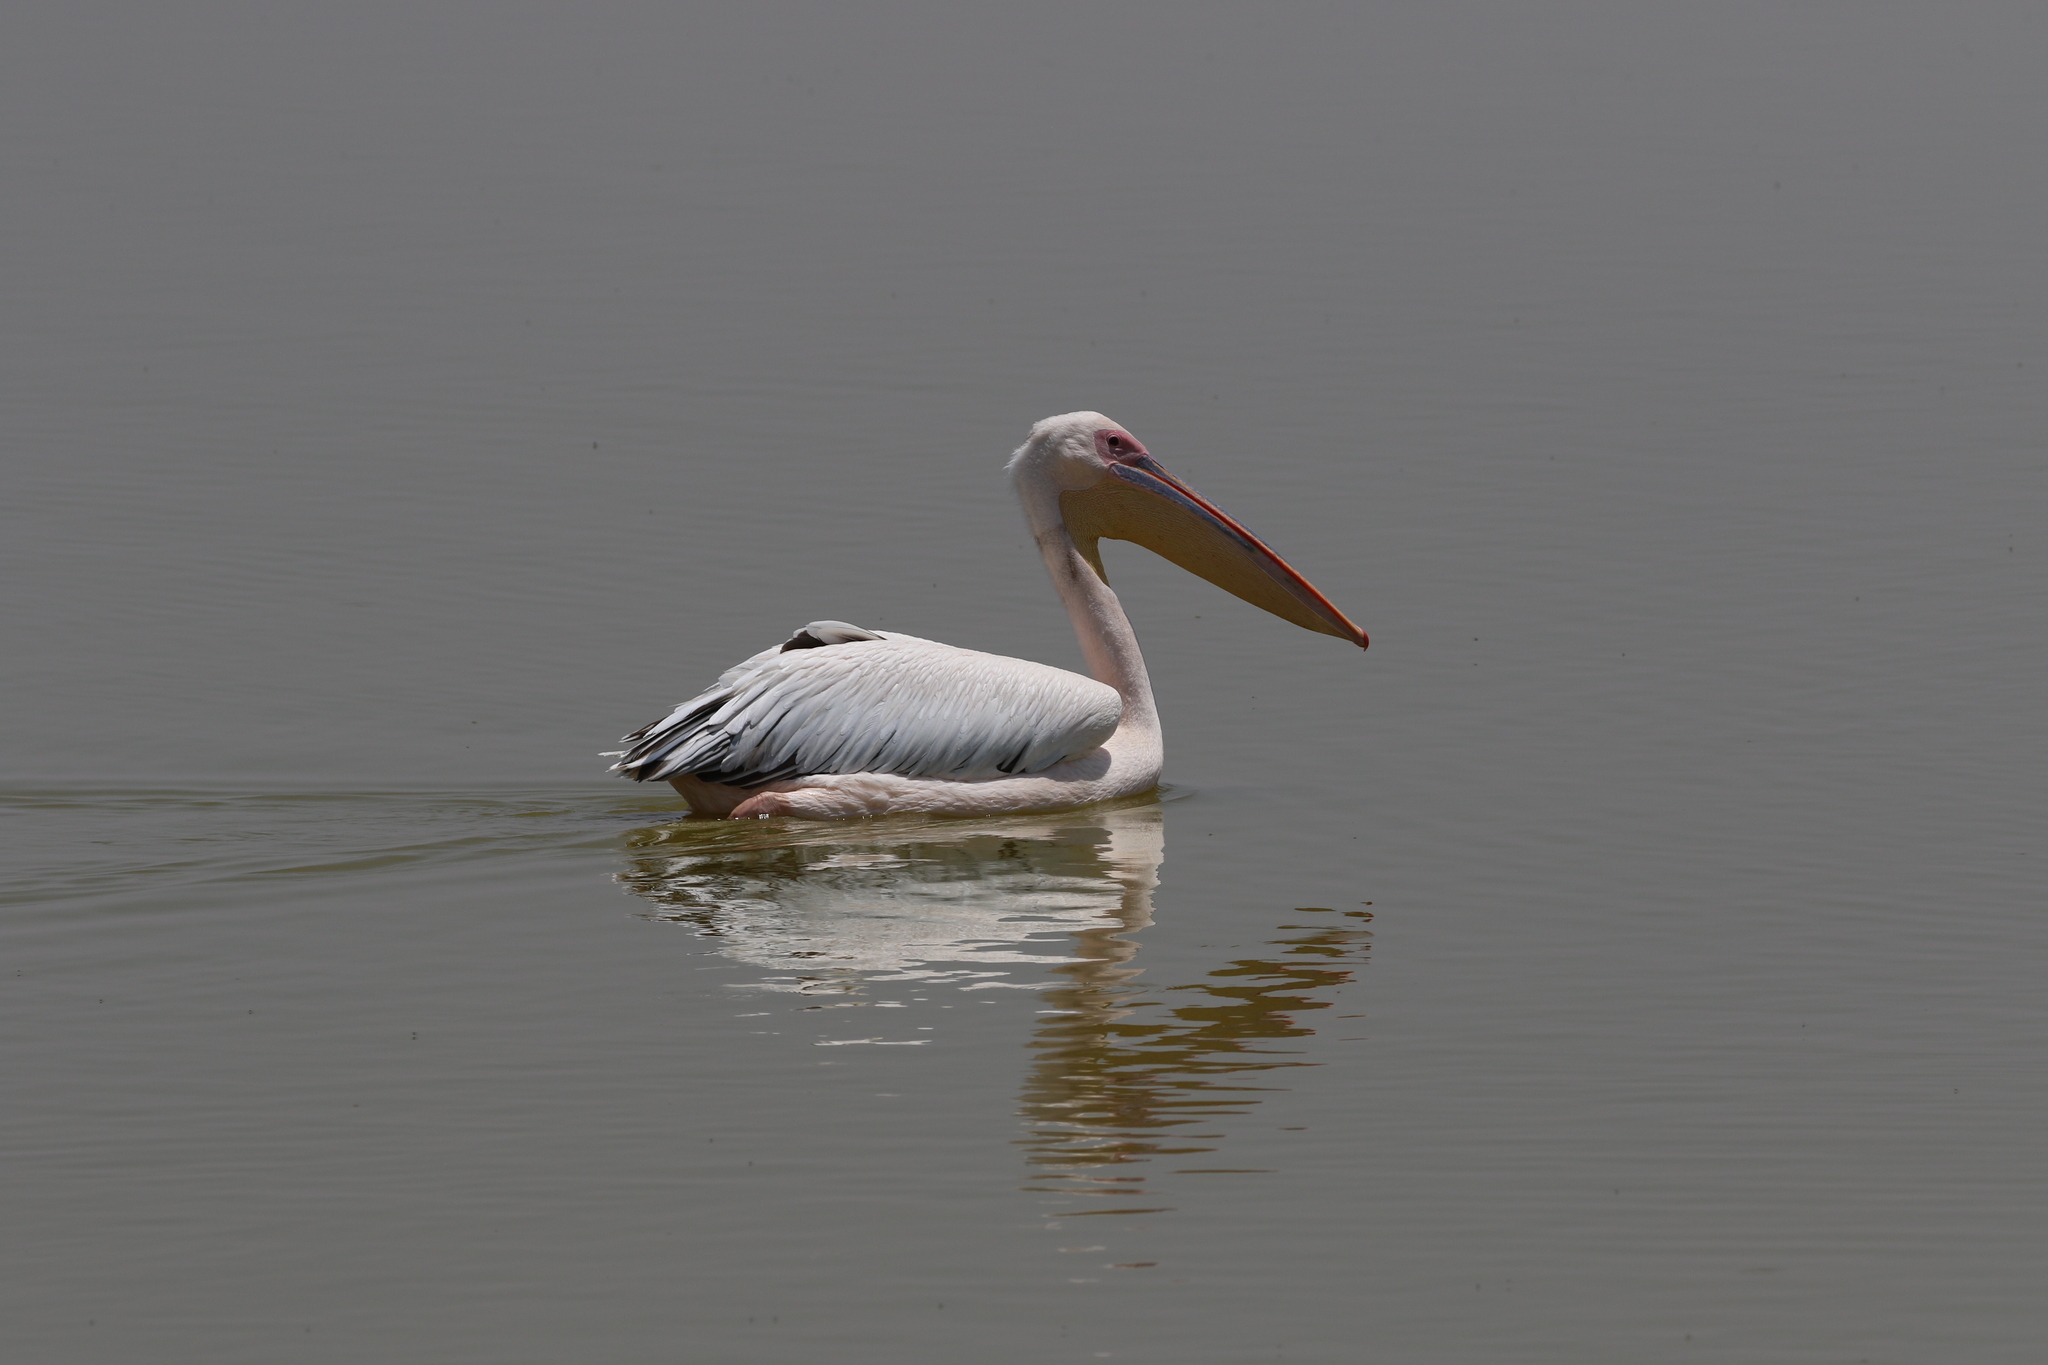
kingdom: Animalia
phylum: Chordata
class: Aves
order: Pelecaniformes
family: Pelecanidae
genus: Pelecanus
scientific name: Pelecanus onocrotalus
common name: Great white pelican
